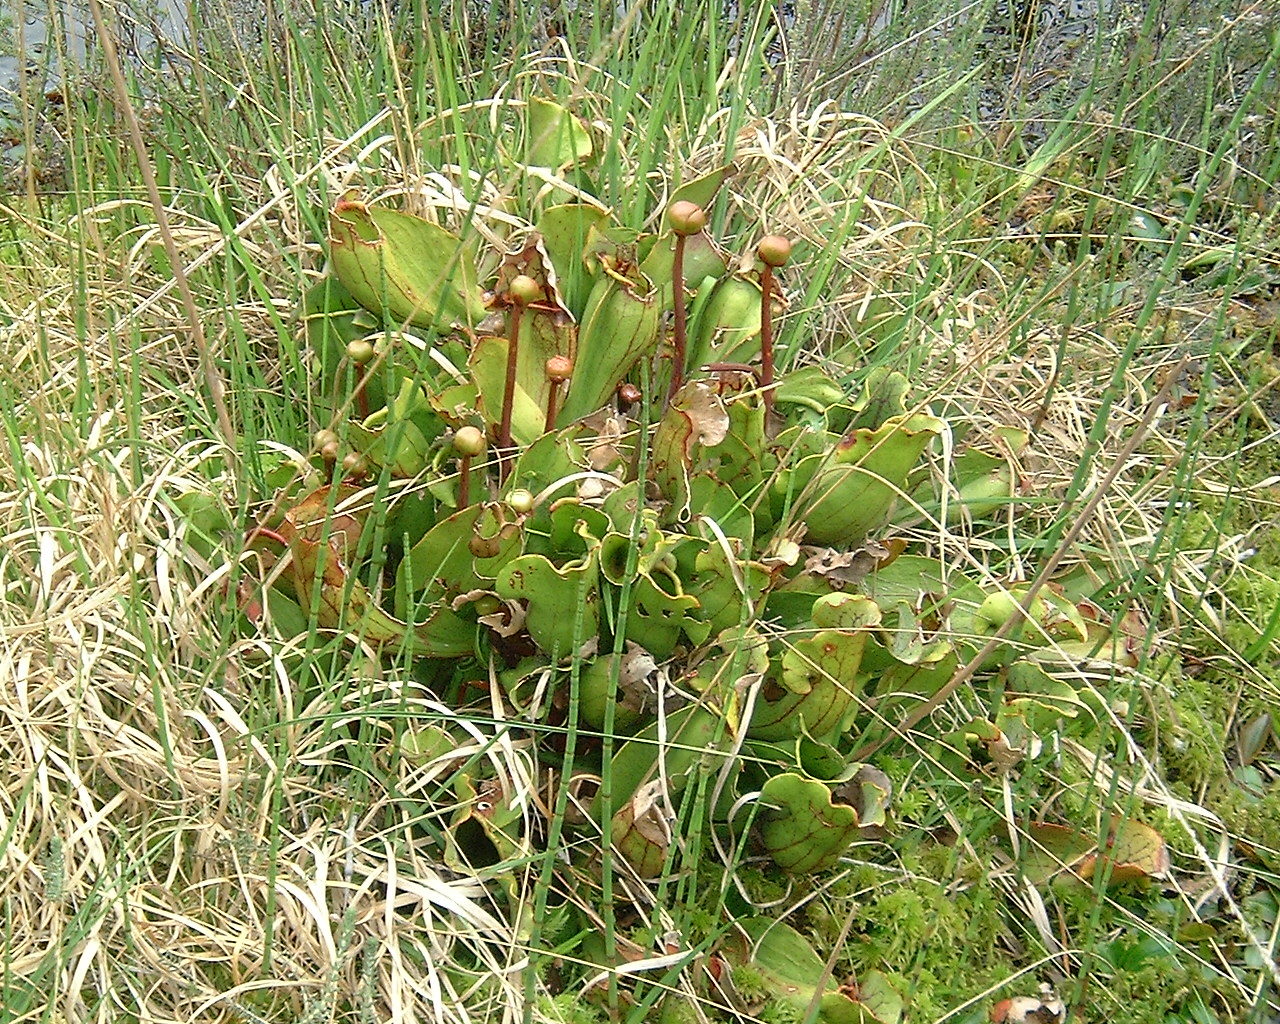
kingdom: Plantae
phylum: Tracheophyta
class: Magnoliopsida
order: Ericales
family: Sarraceniaceae
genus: Sarracenia
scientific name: Sarracenia purpurea
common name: Pitcherplant
